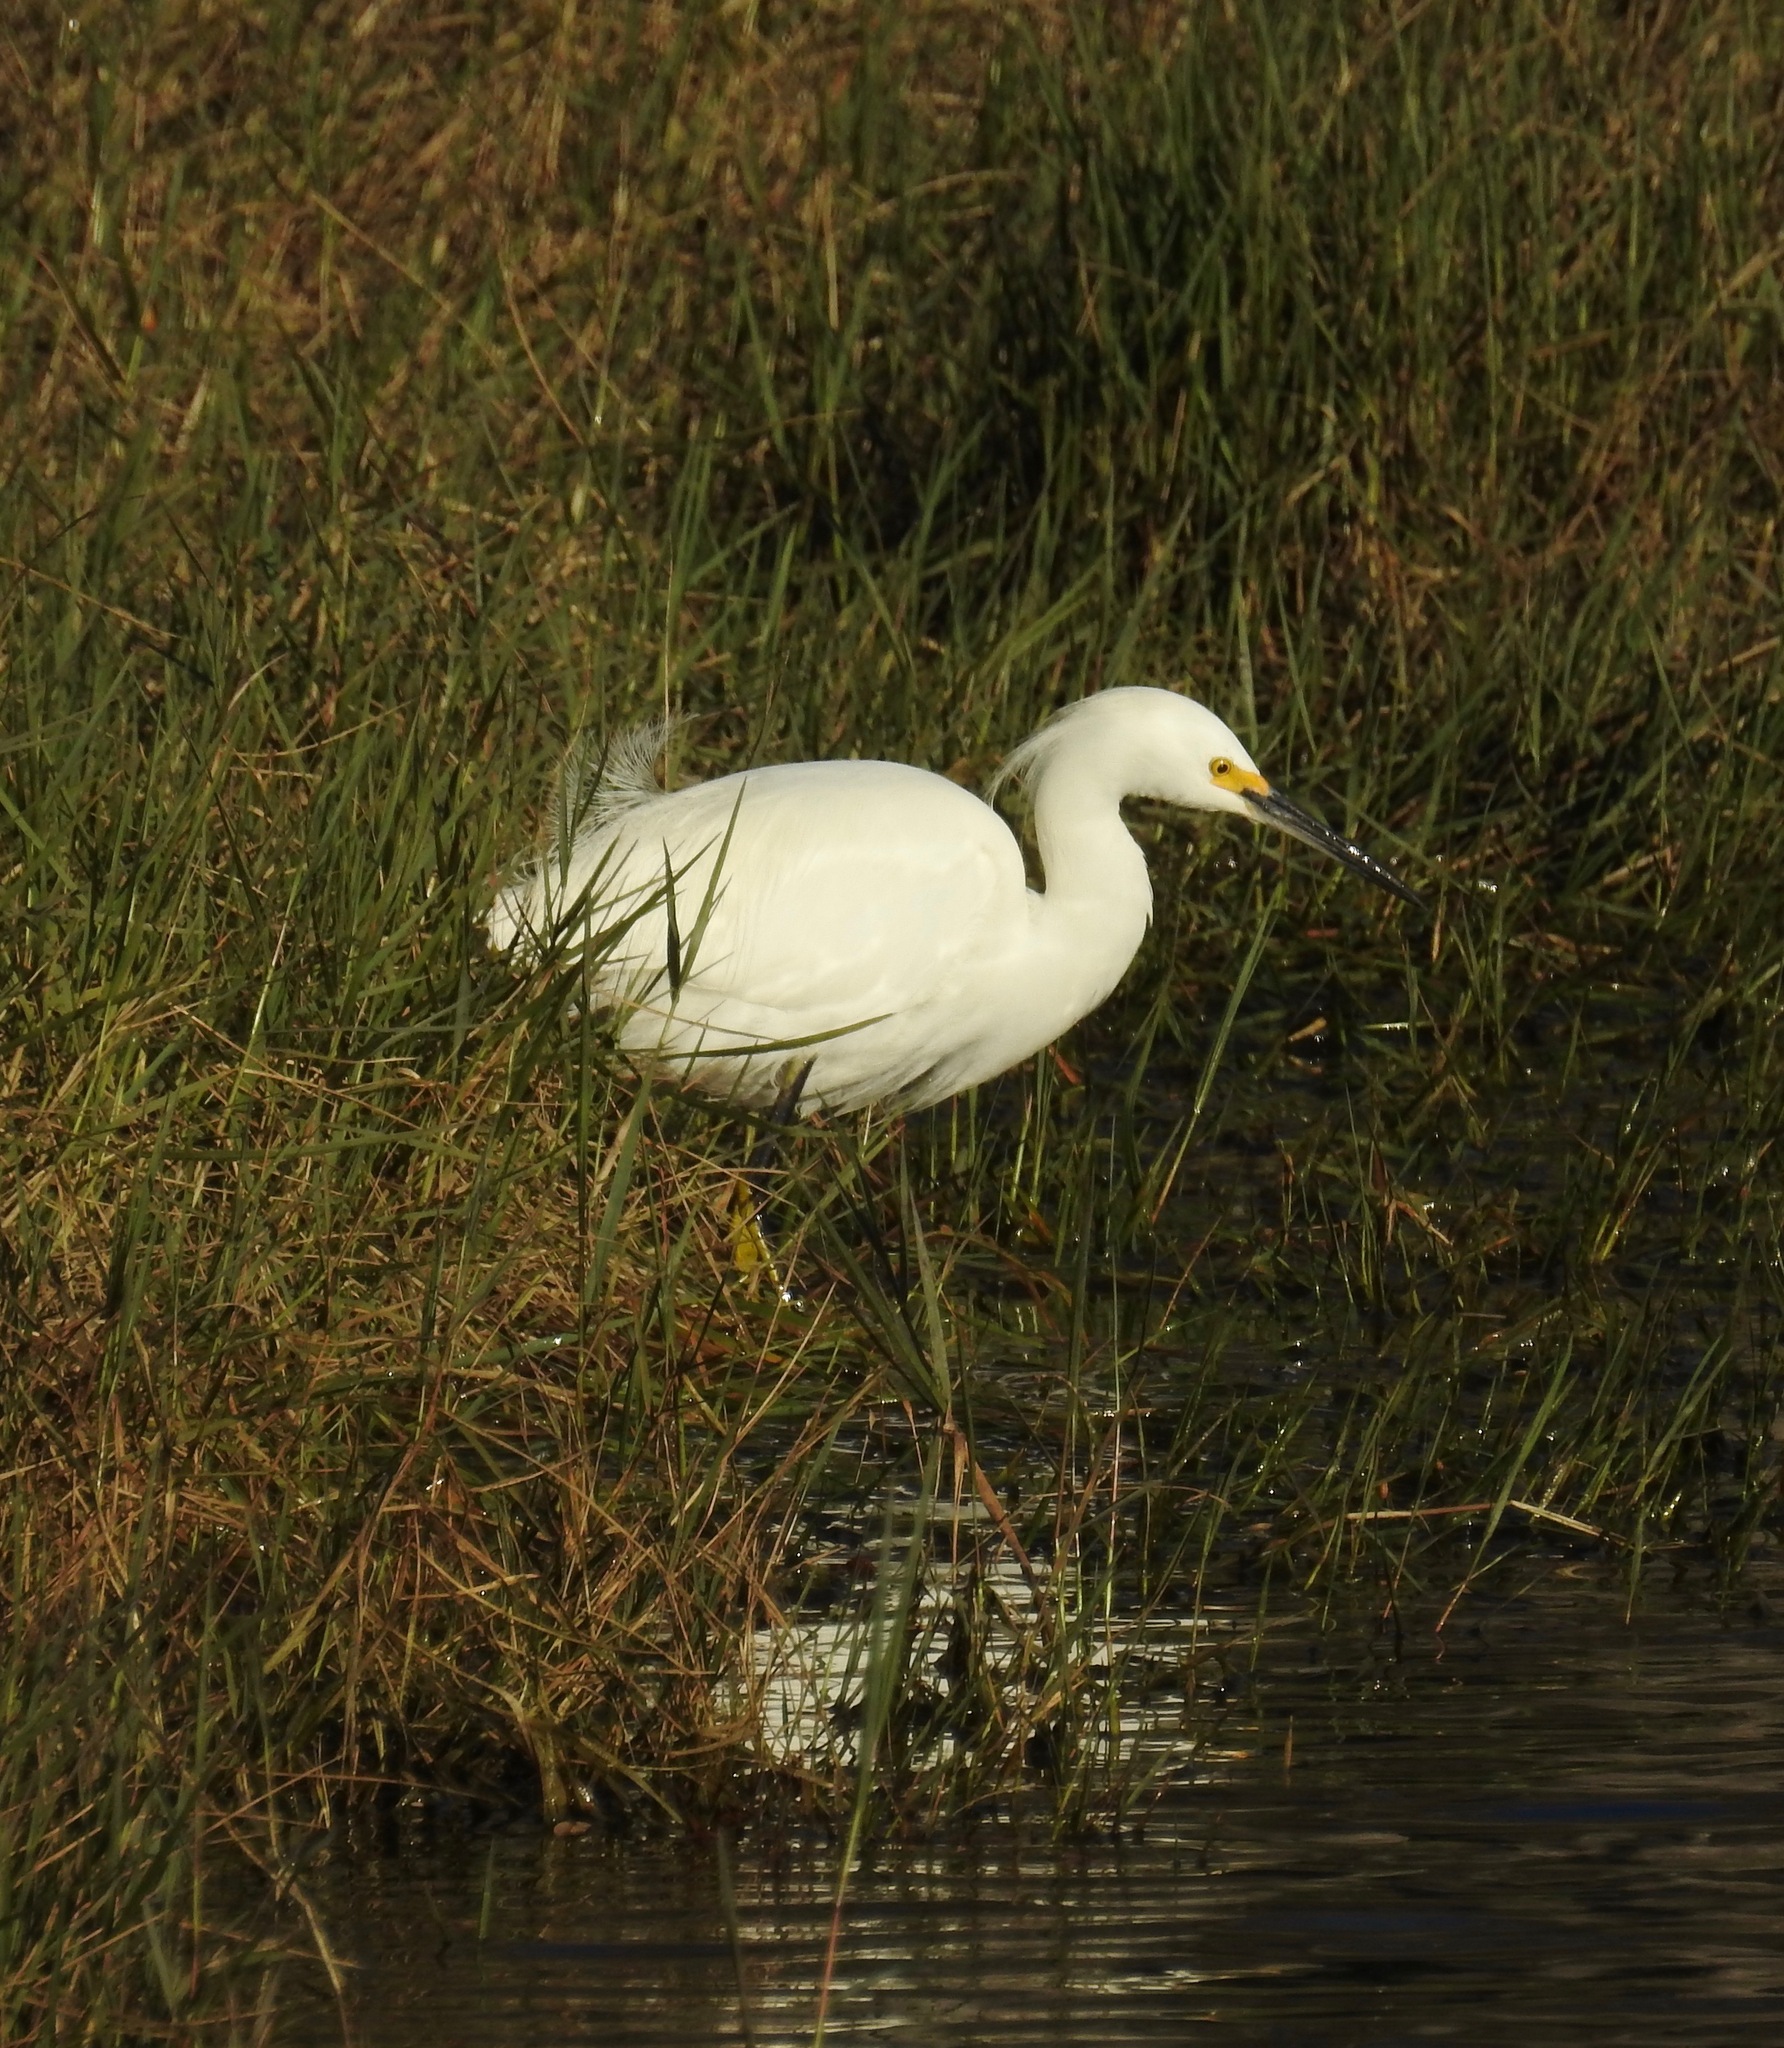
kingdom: Animalia
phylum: Chordata
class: Aves
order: Pelecaniformes
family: Ardeidae
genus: Egretta
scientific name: Egretta thula
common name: Snowy egret
